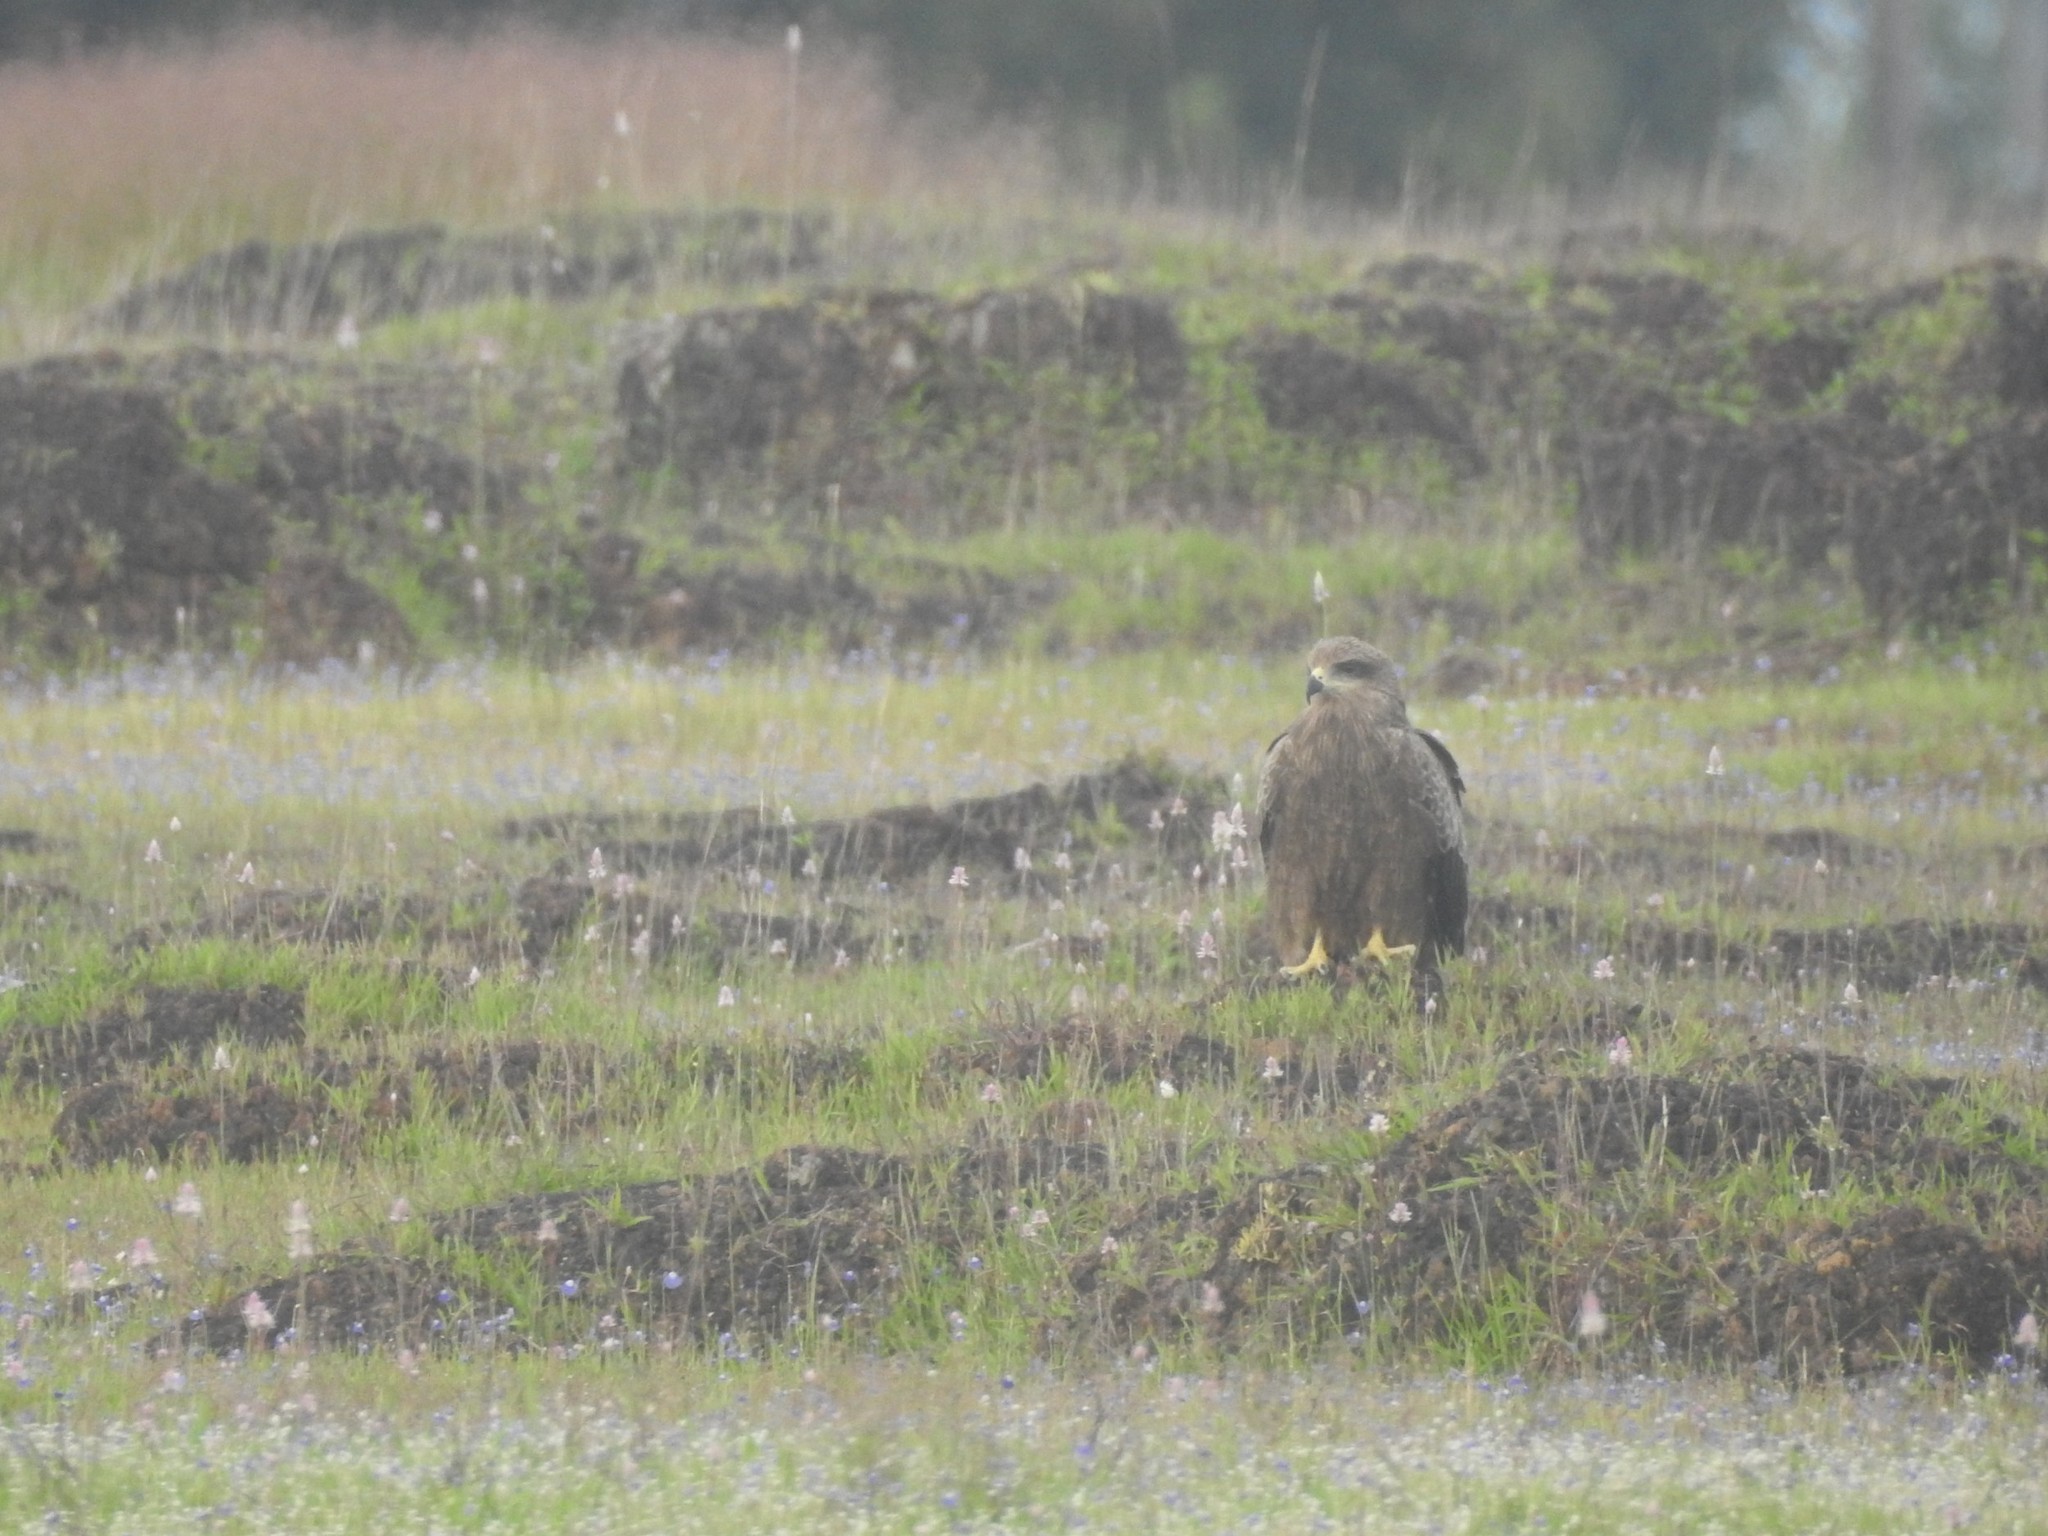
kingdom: Animalia
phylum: Chordata
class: Aves
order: Accipitriformes
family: Accipitridae
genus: Milvus
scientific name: Milvus migrans
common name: Black kite
